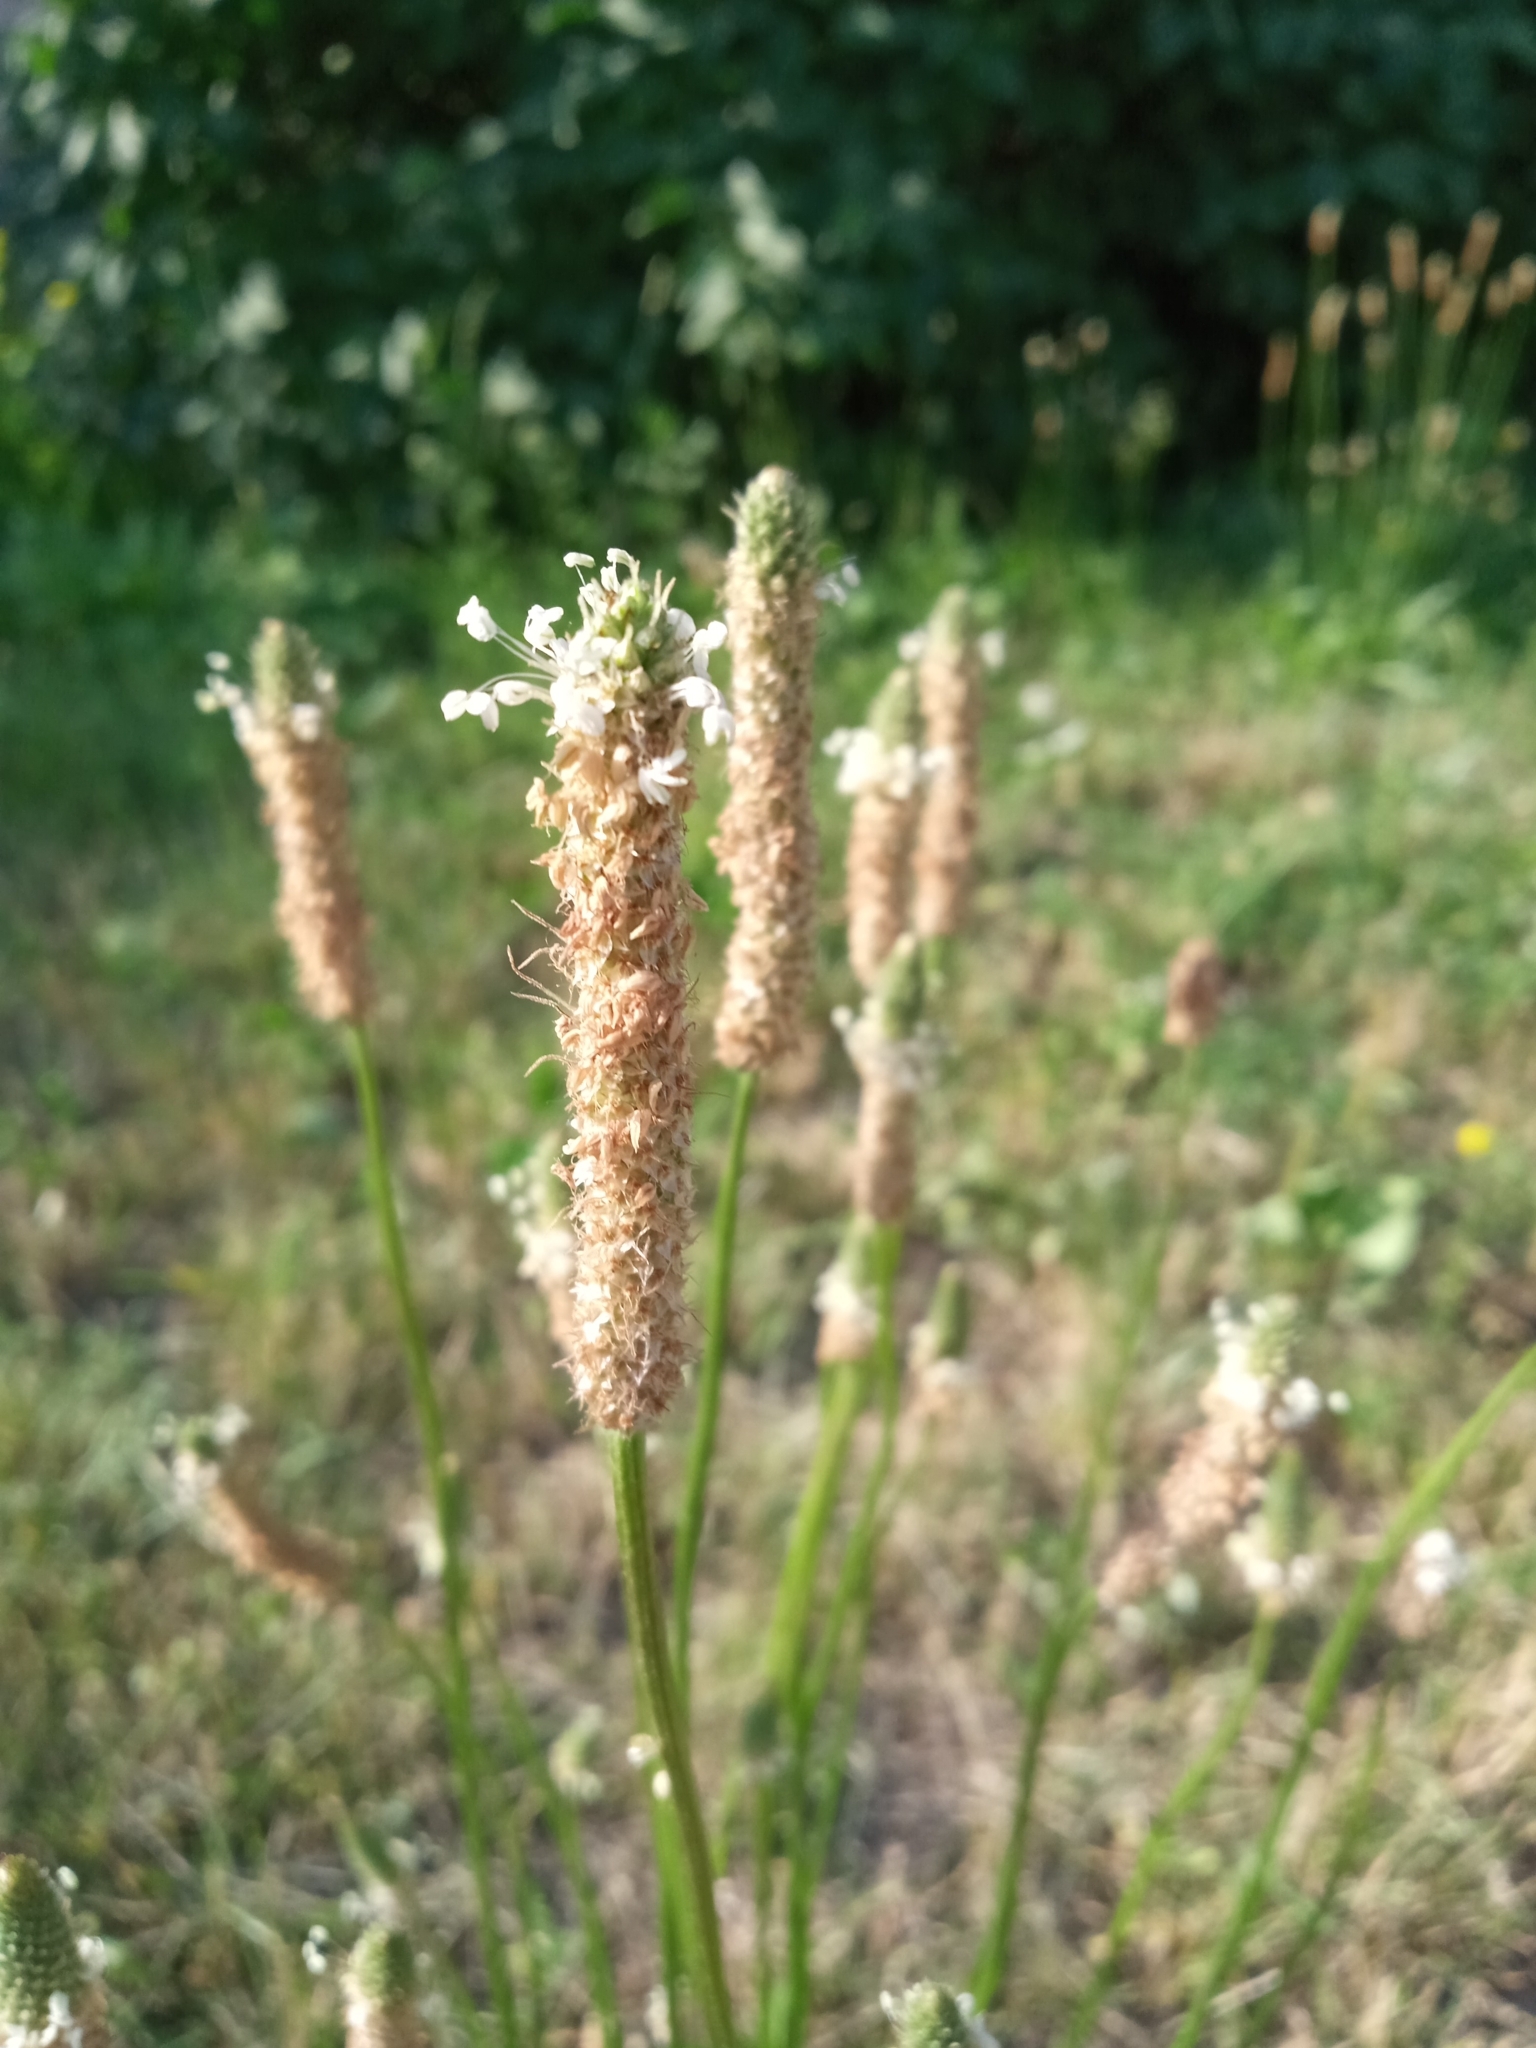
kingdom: Plantae
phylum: Tracheophyta
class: Magnoliopsida
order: Lamiales
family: Plantaginaceae
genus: Plantago
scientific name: Plantago lanceolata
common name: Ribwort plantain
